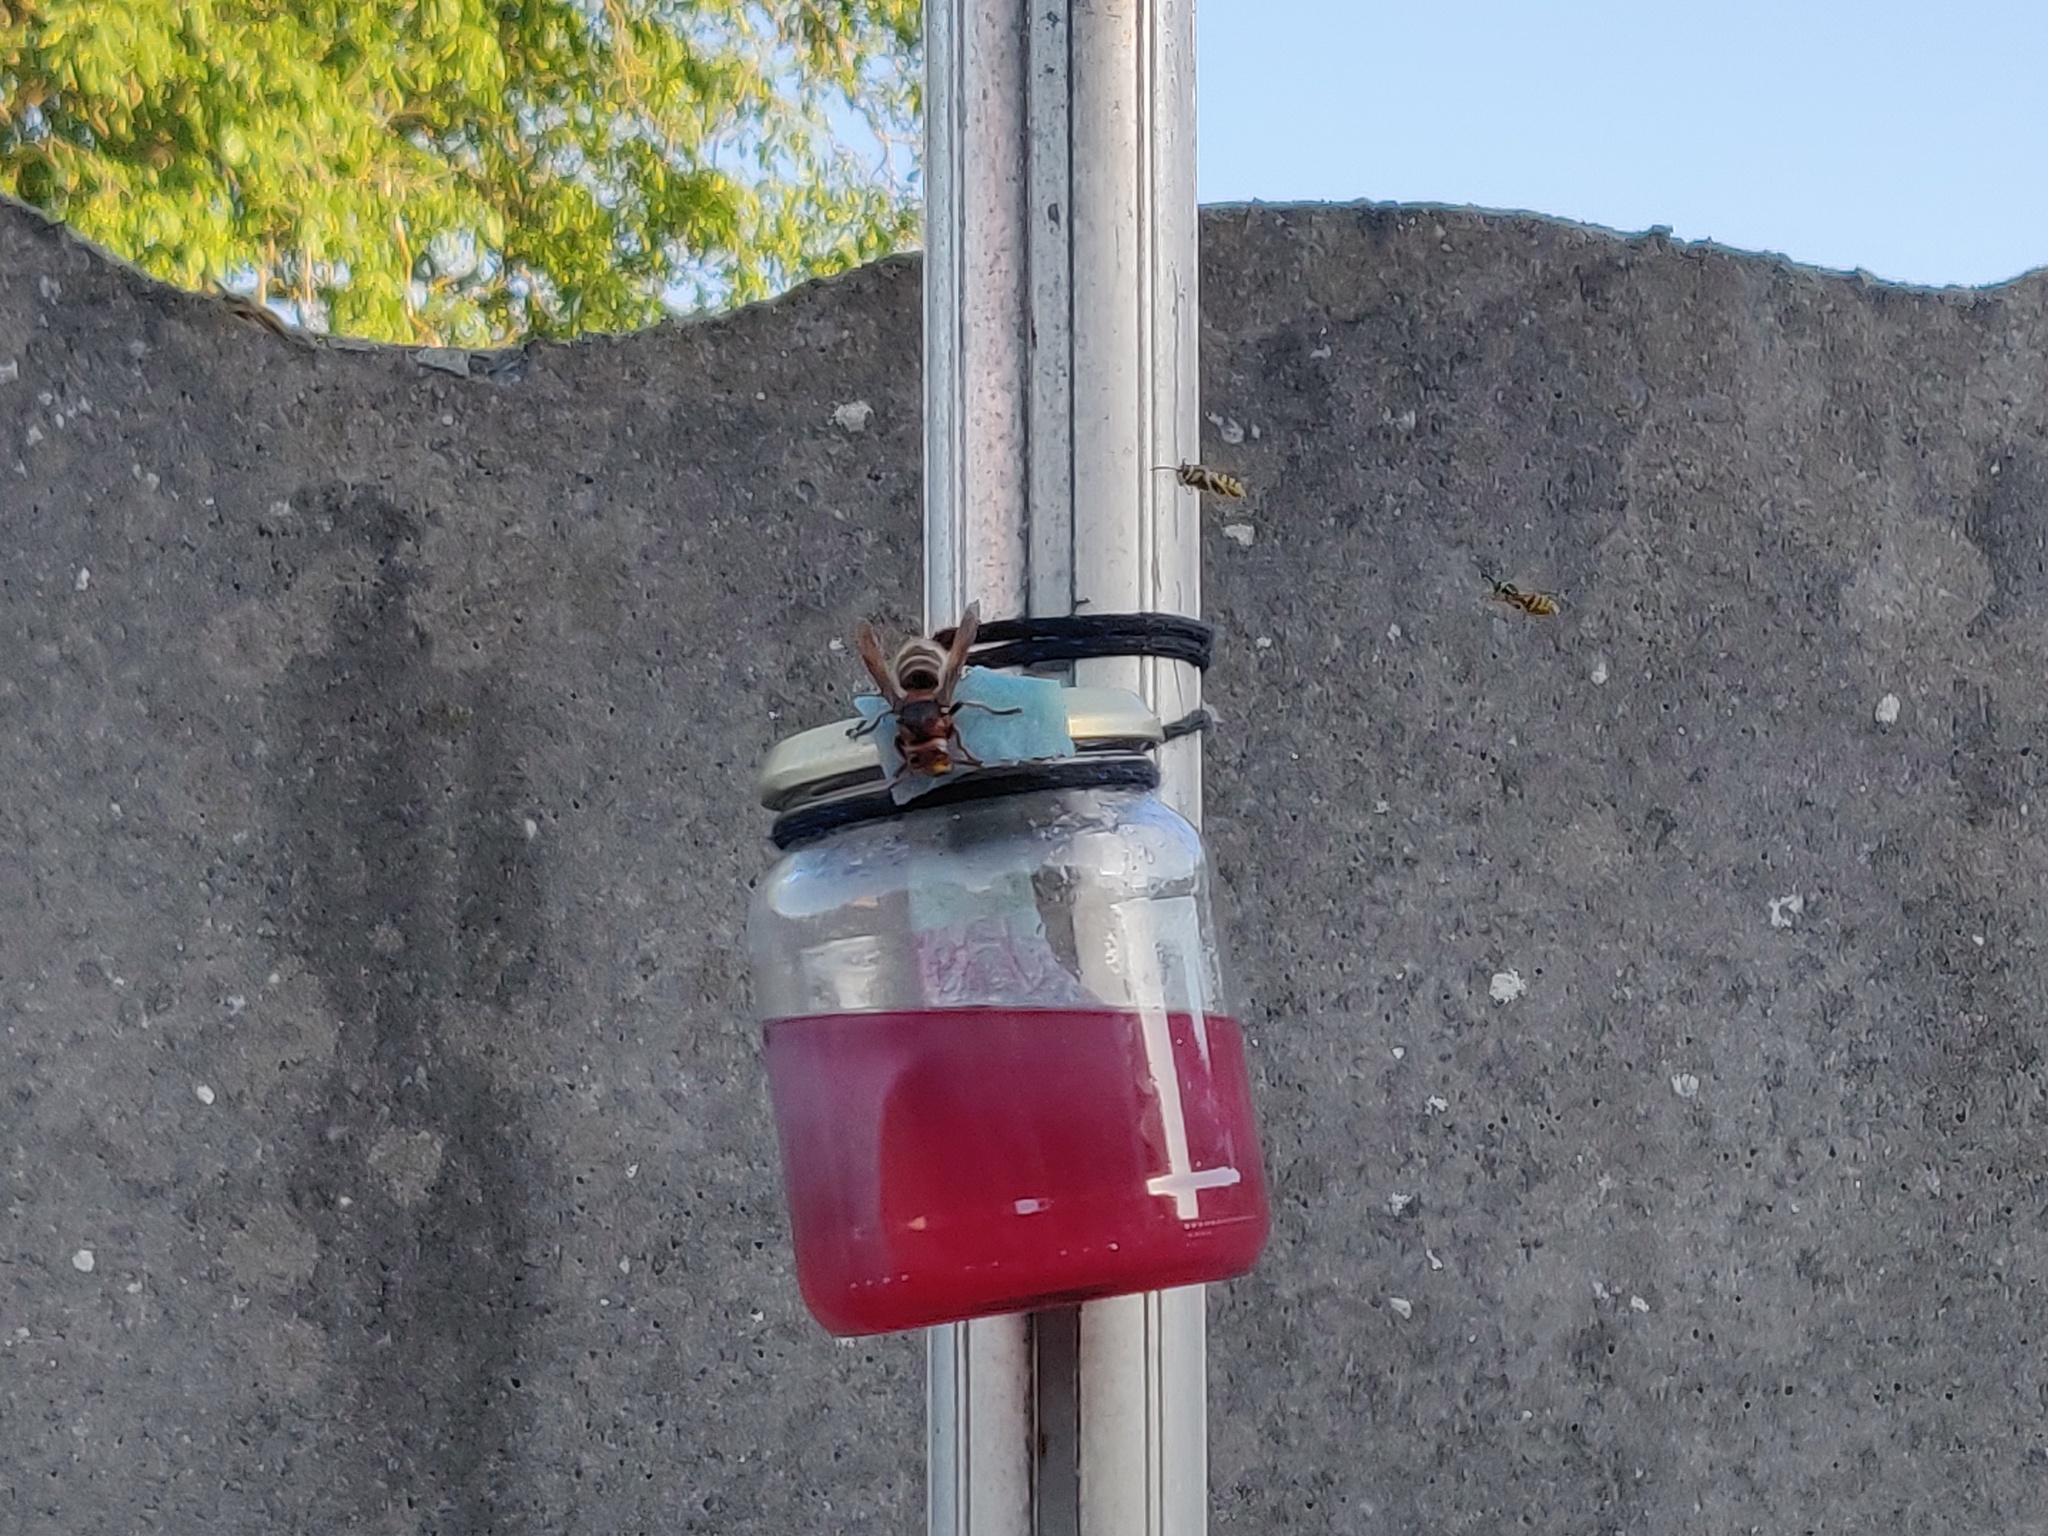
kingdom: Animalia
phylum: Arthropoda
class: Insecta
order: Hymenoptera
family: Vespidae
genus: Vespa
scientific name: Vespa crabro
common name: Hornet
